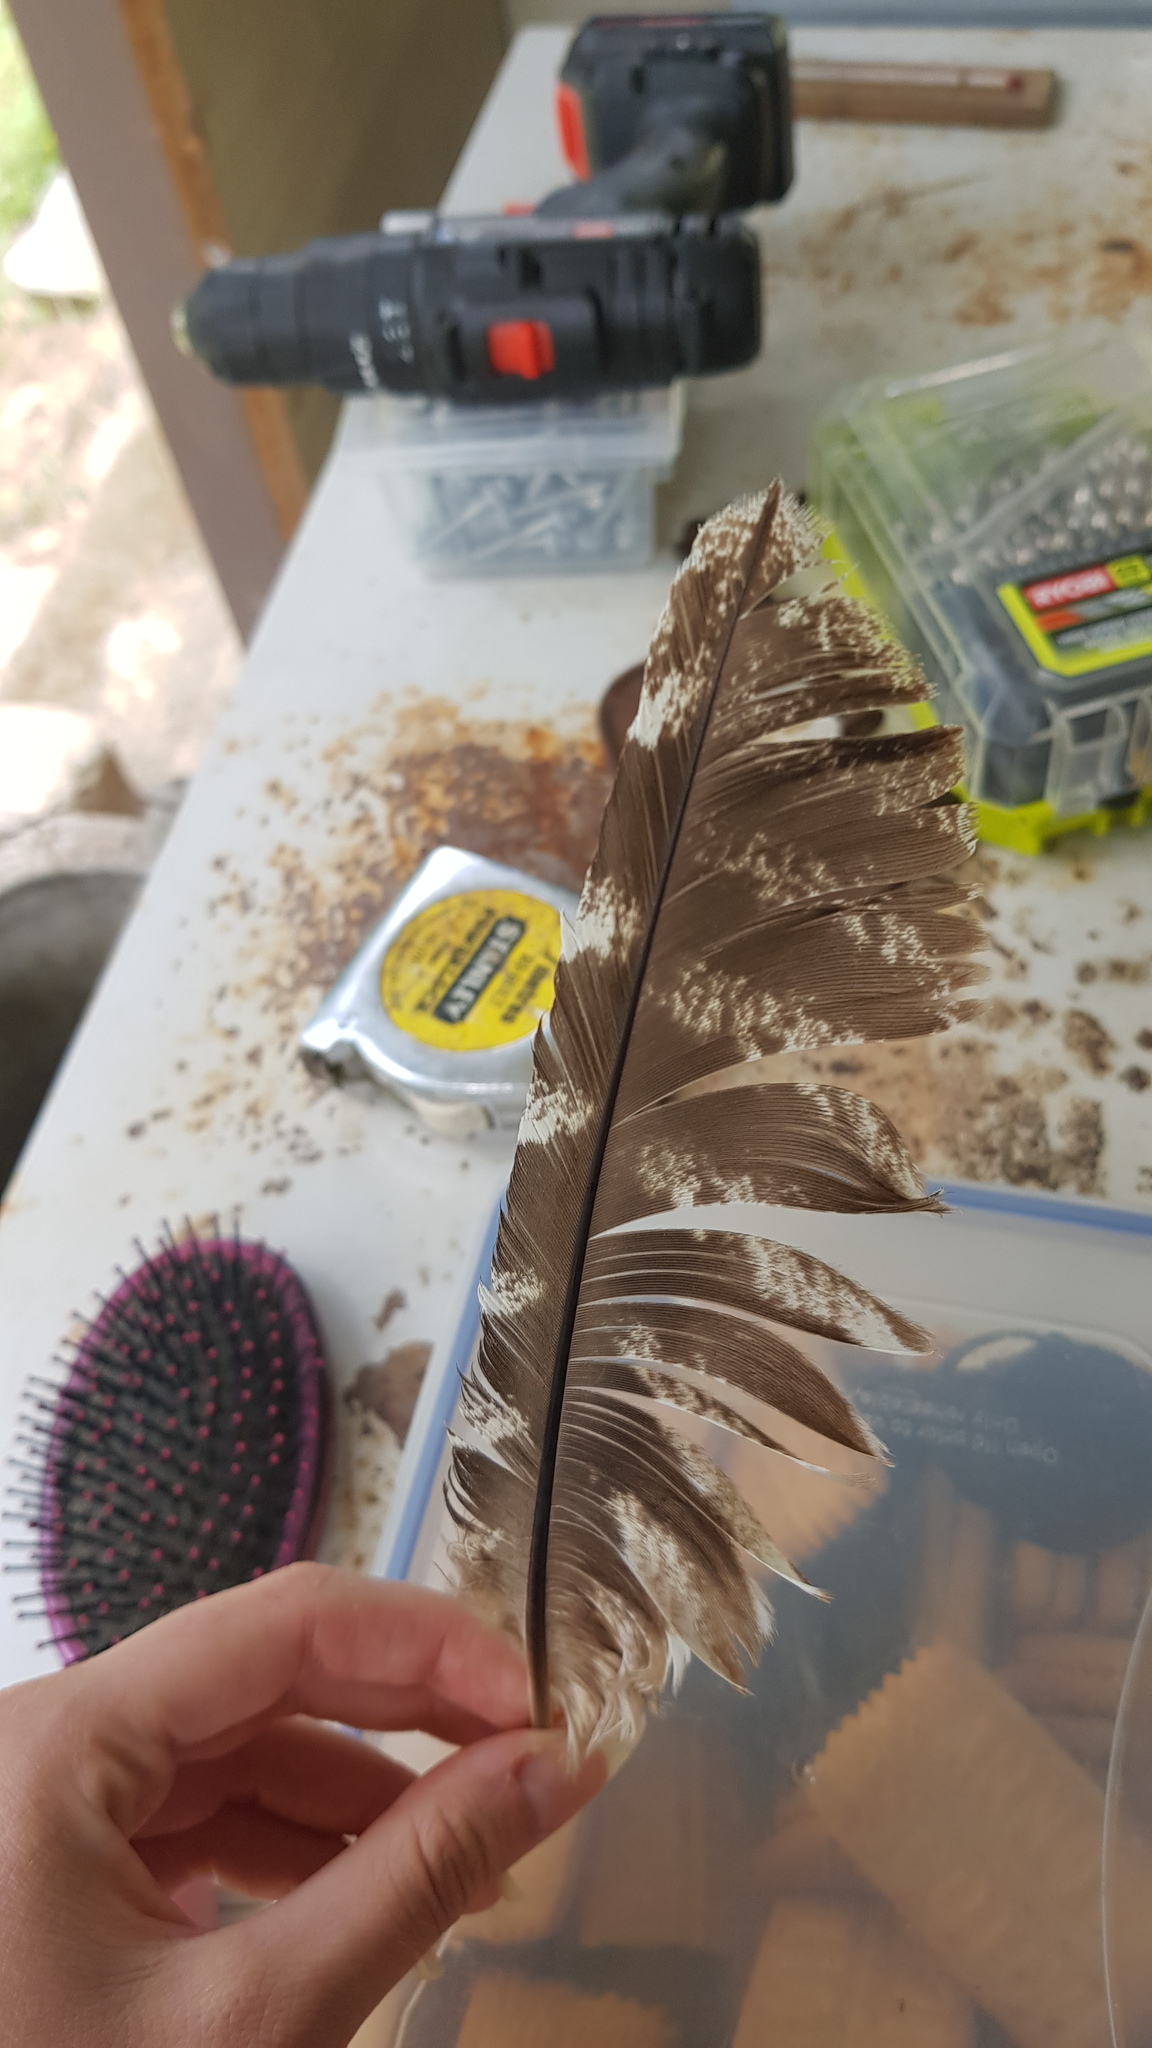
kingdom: Animalia
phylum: Chordata
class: Aves
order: Caprimulgiformes
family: Podargidae
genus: Podargus
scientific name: Podargus strigoides
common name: Tawny frogmouth
